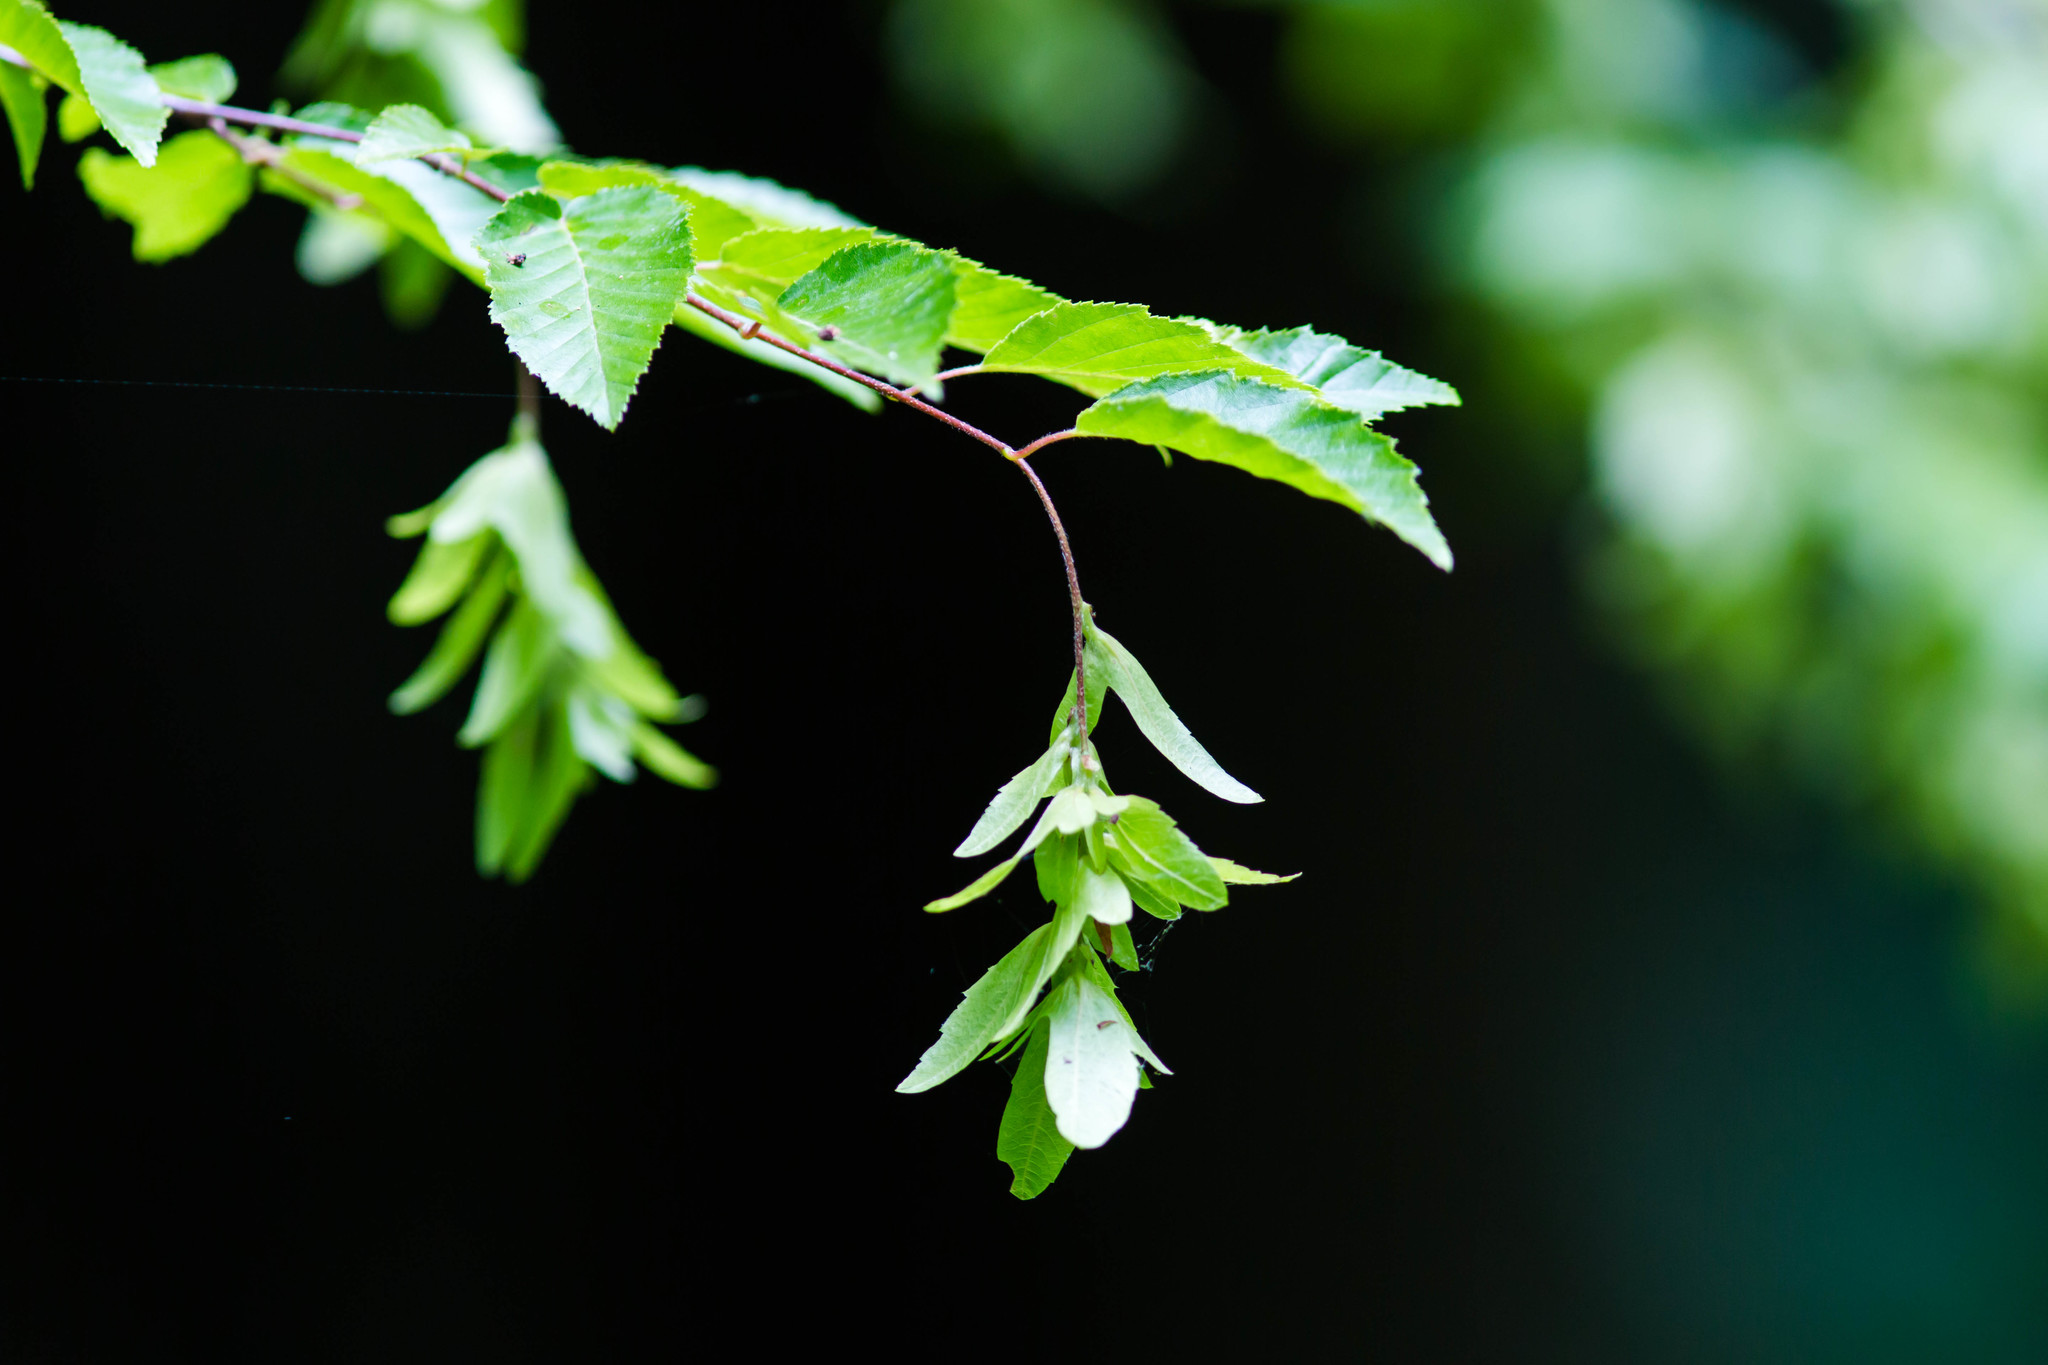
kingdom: Plantae
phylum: Tracheophyta
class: Magnoliopsida
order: Fagales
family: Betulaceae
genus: Carpinus
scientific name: Carpinus caroliniana
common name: American hornbeam
